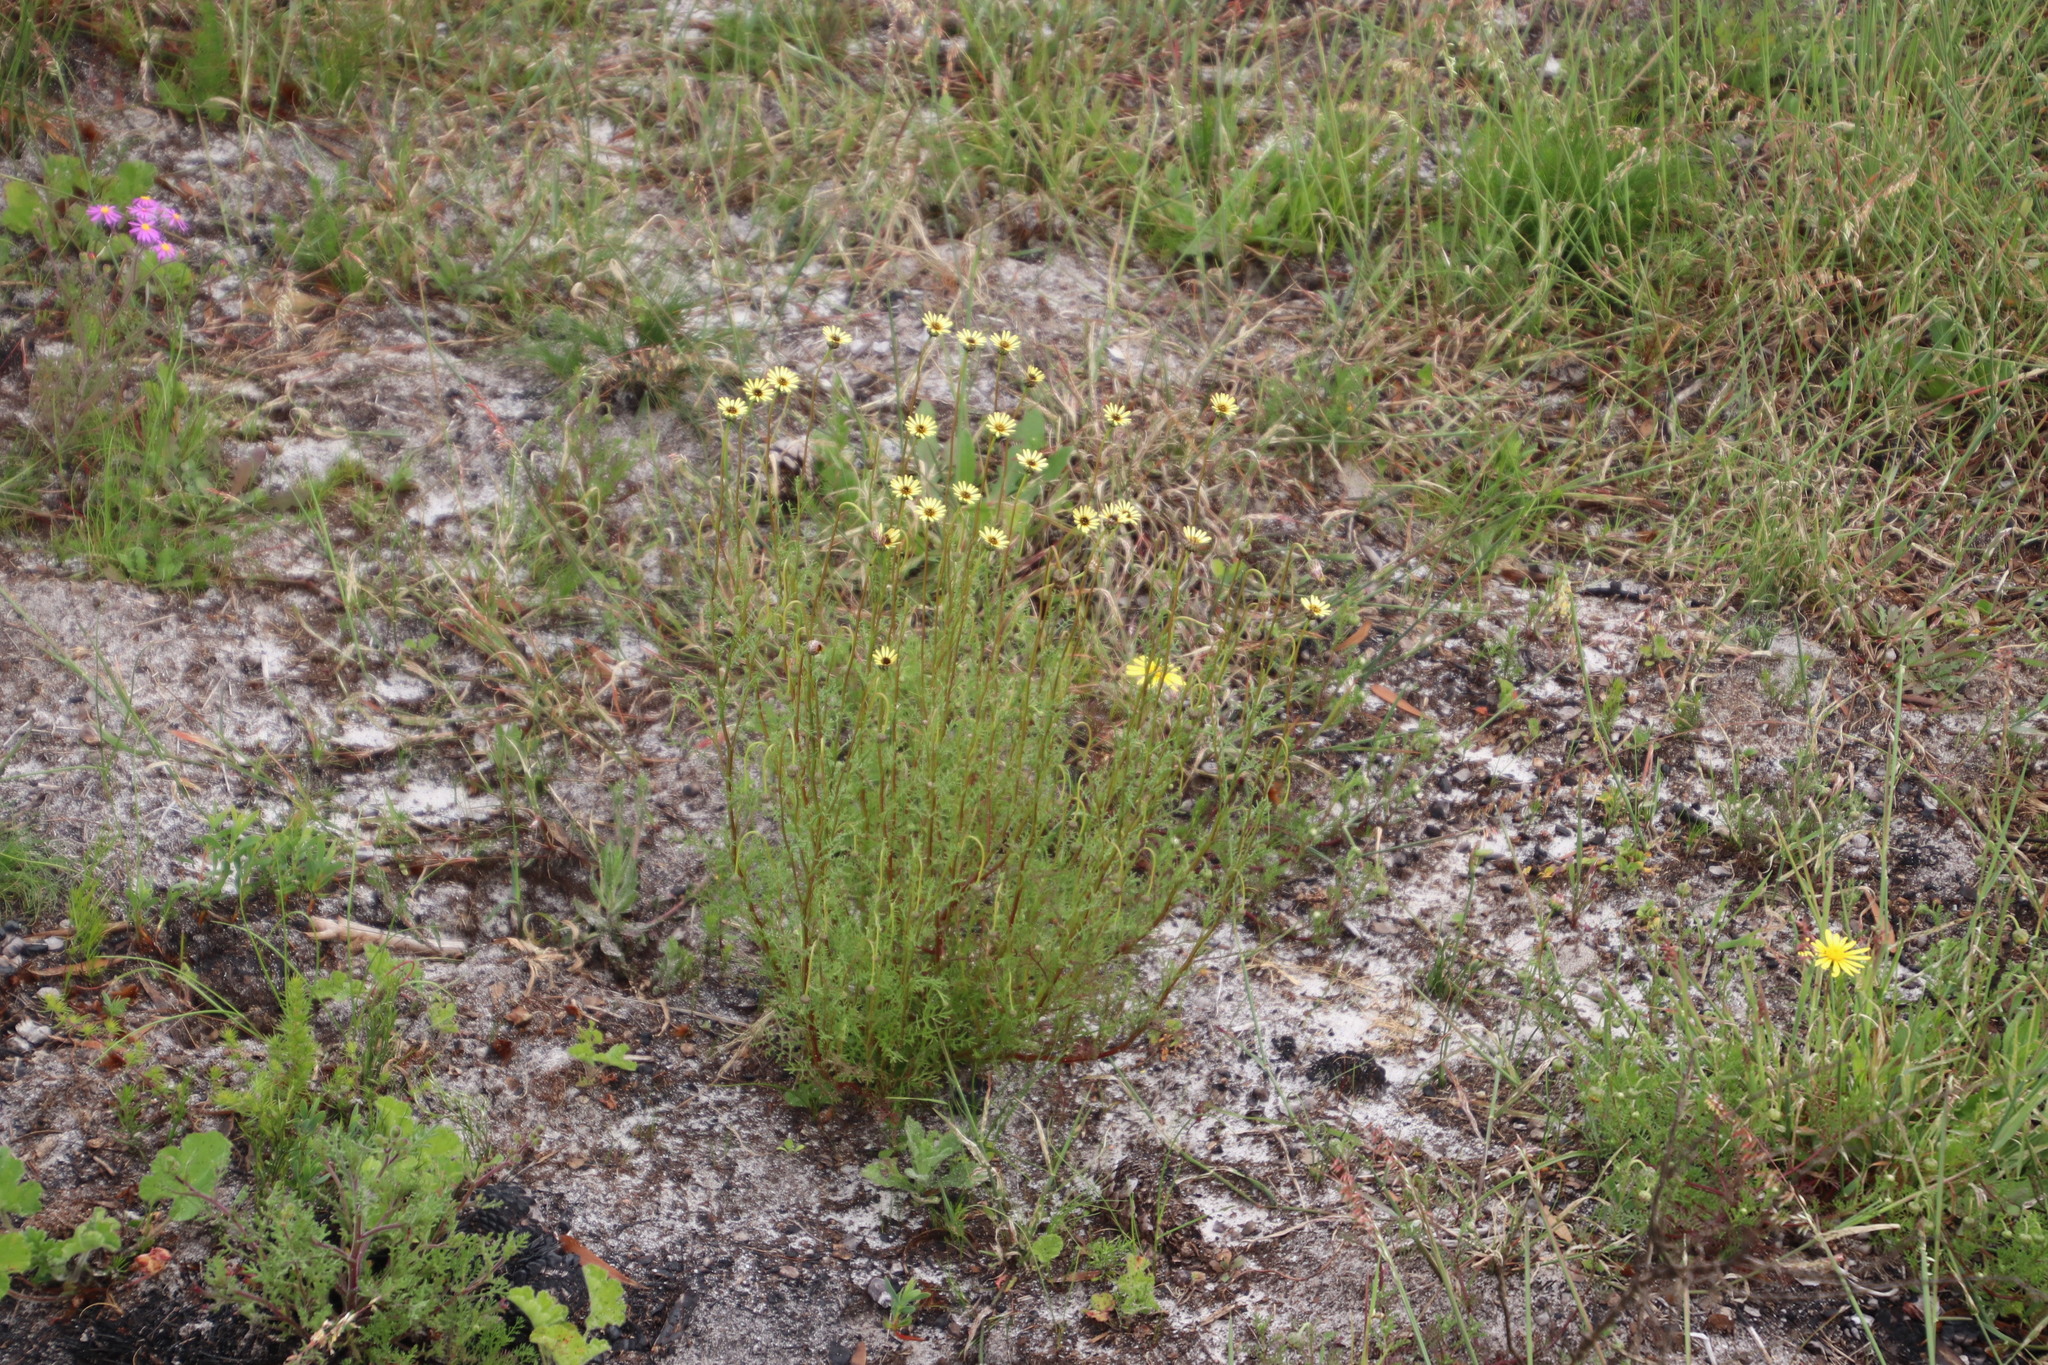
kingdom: Plantae
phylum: Tracheophyta
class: Magnoliopsida
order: Asterales
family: Asteraceae
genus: Ursinia
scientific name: Ursinia anthemoides
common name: Ursinia
